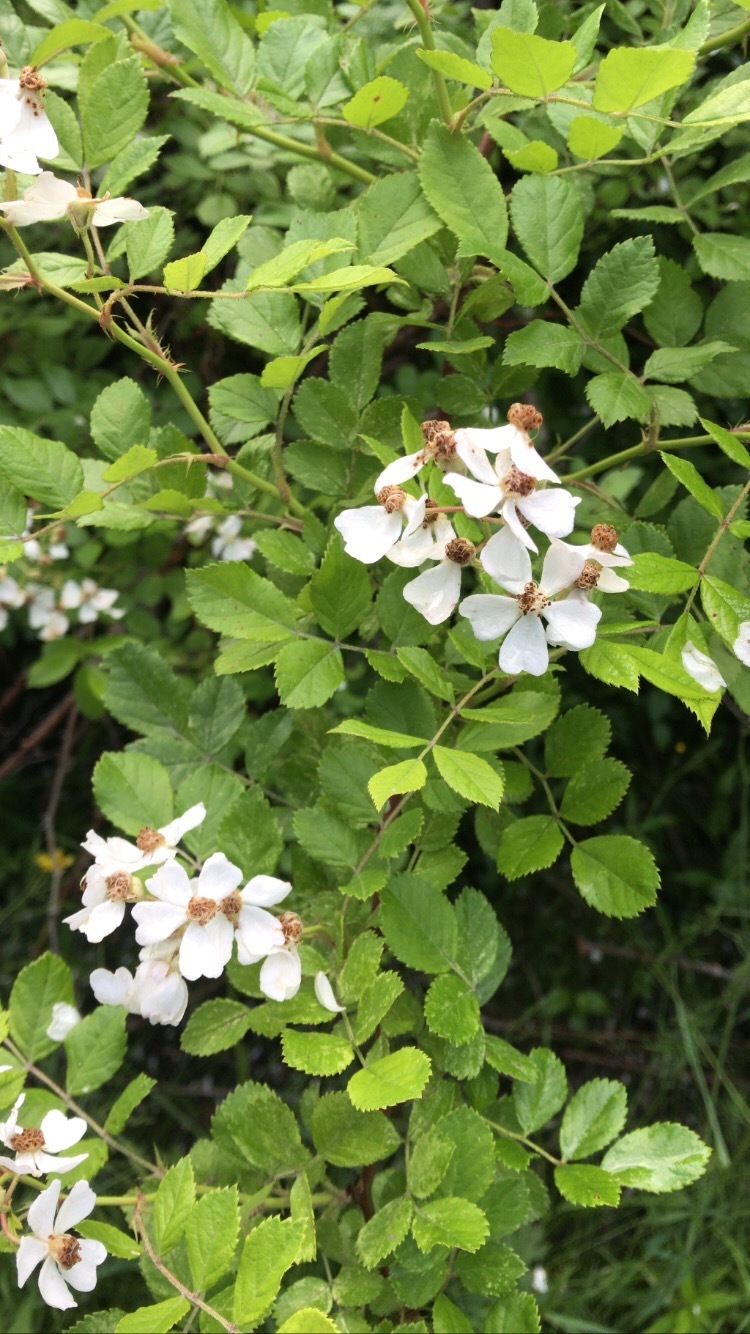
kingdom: Plantae
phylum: Tracheophyta
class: Magnoliopsida
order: Rosales
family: Rosaceae
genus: Rosa
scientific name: Rosa multiflora
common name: Multiflora rose
